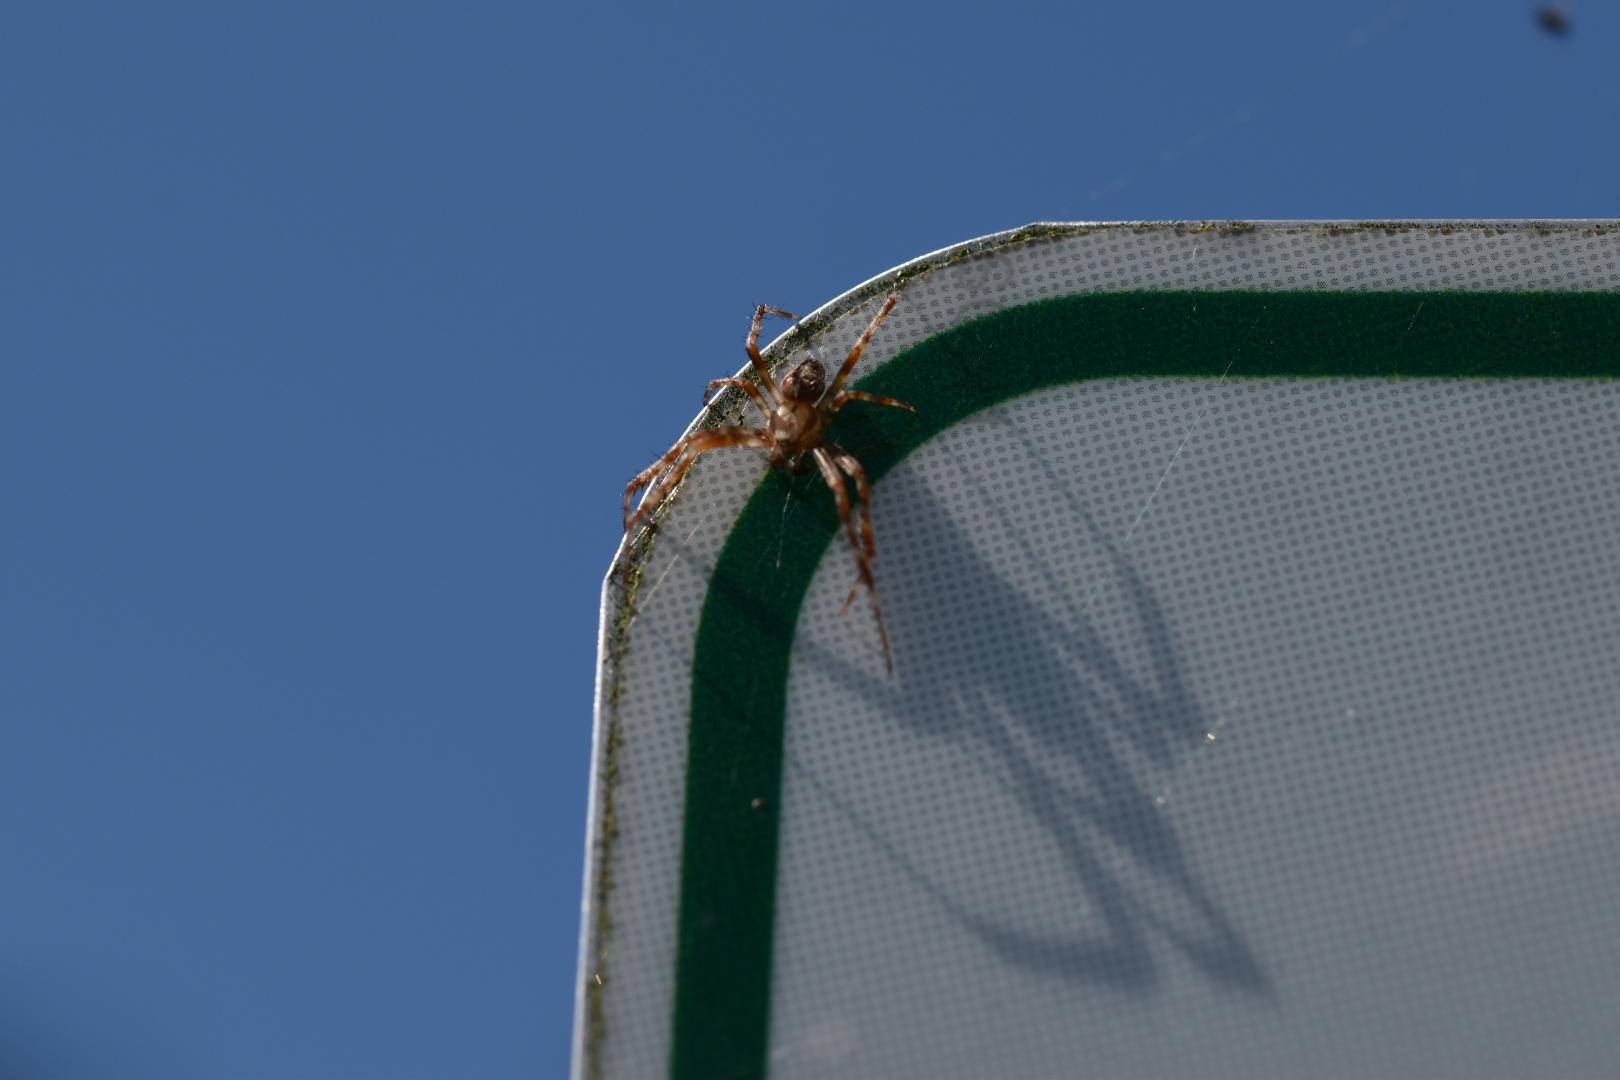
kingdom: Animalia
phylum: Arthropoda
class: Arachnida
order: Araneae
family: Araneidae
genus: Araneus
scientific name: Araneus diadematus
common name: Cross orbweaver
